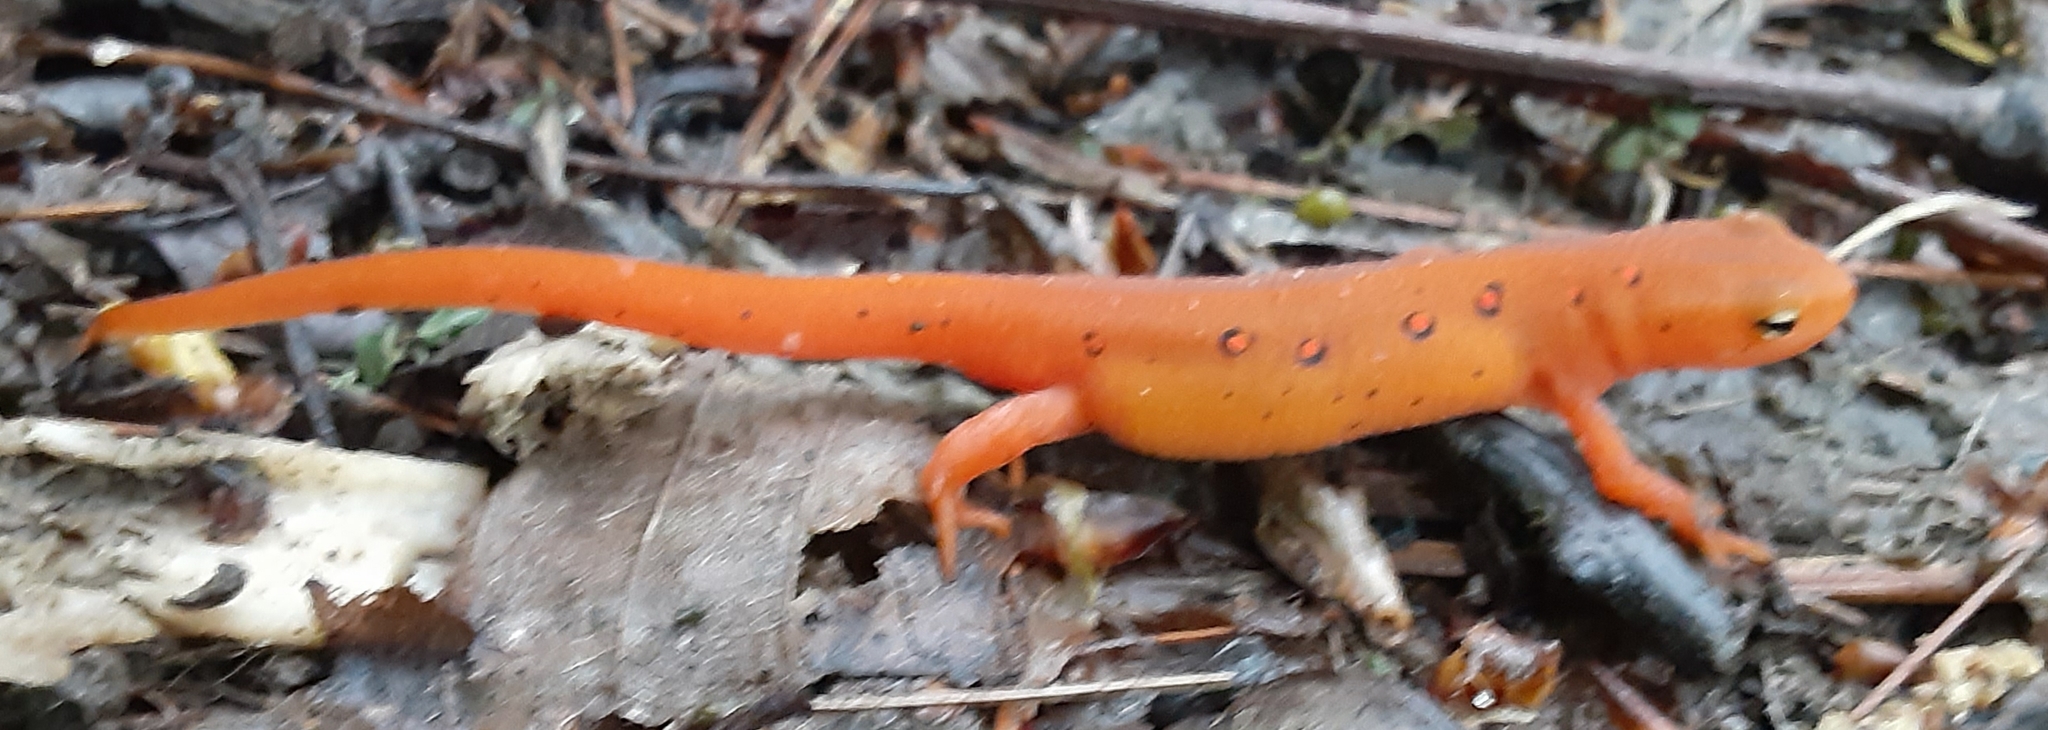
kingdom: Animalia
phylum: Chordata
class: Amphibia
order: Caudata
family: Salamandridae
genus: Notophthalmus
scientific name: Notophthalmus viridescens
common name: Eastern newt
